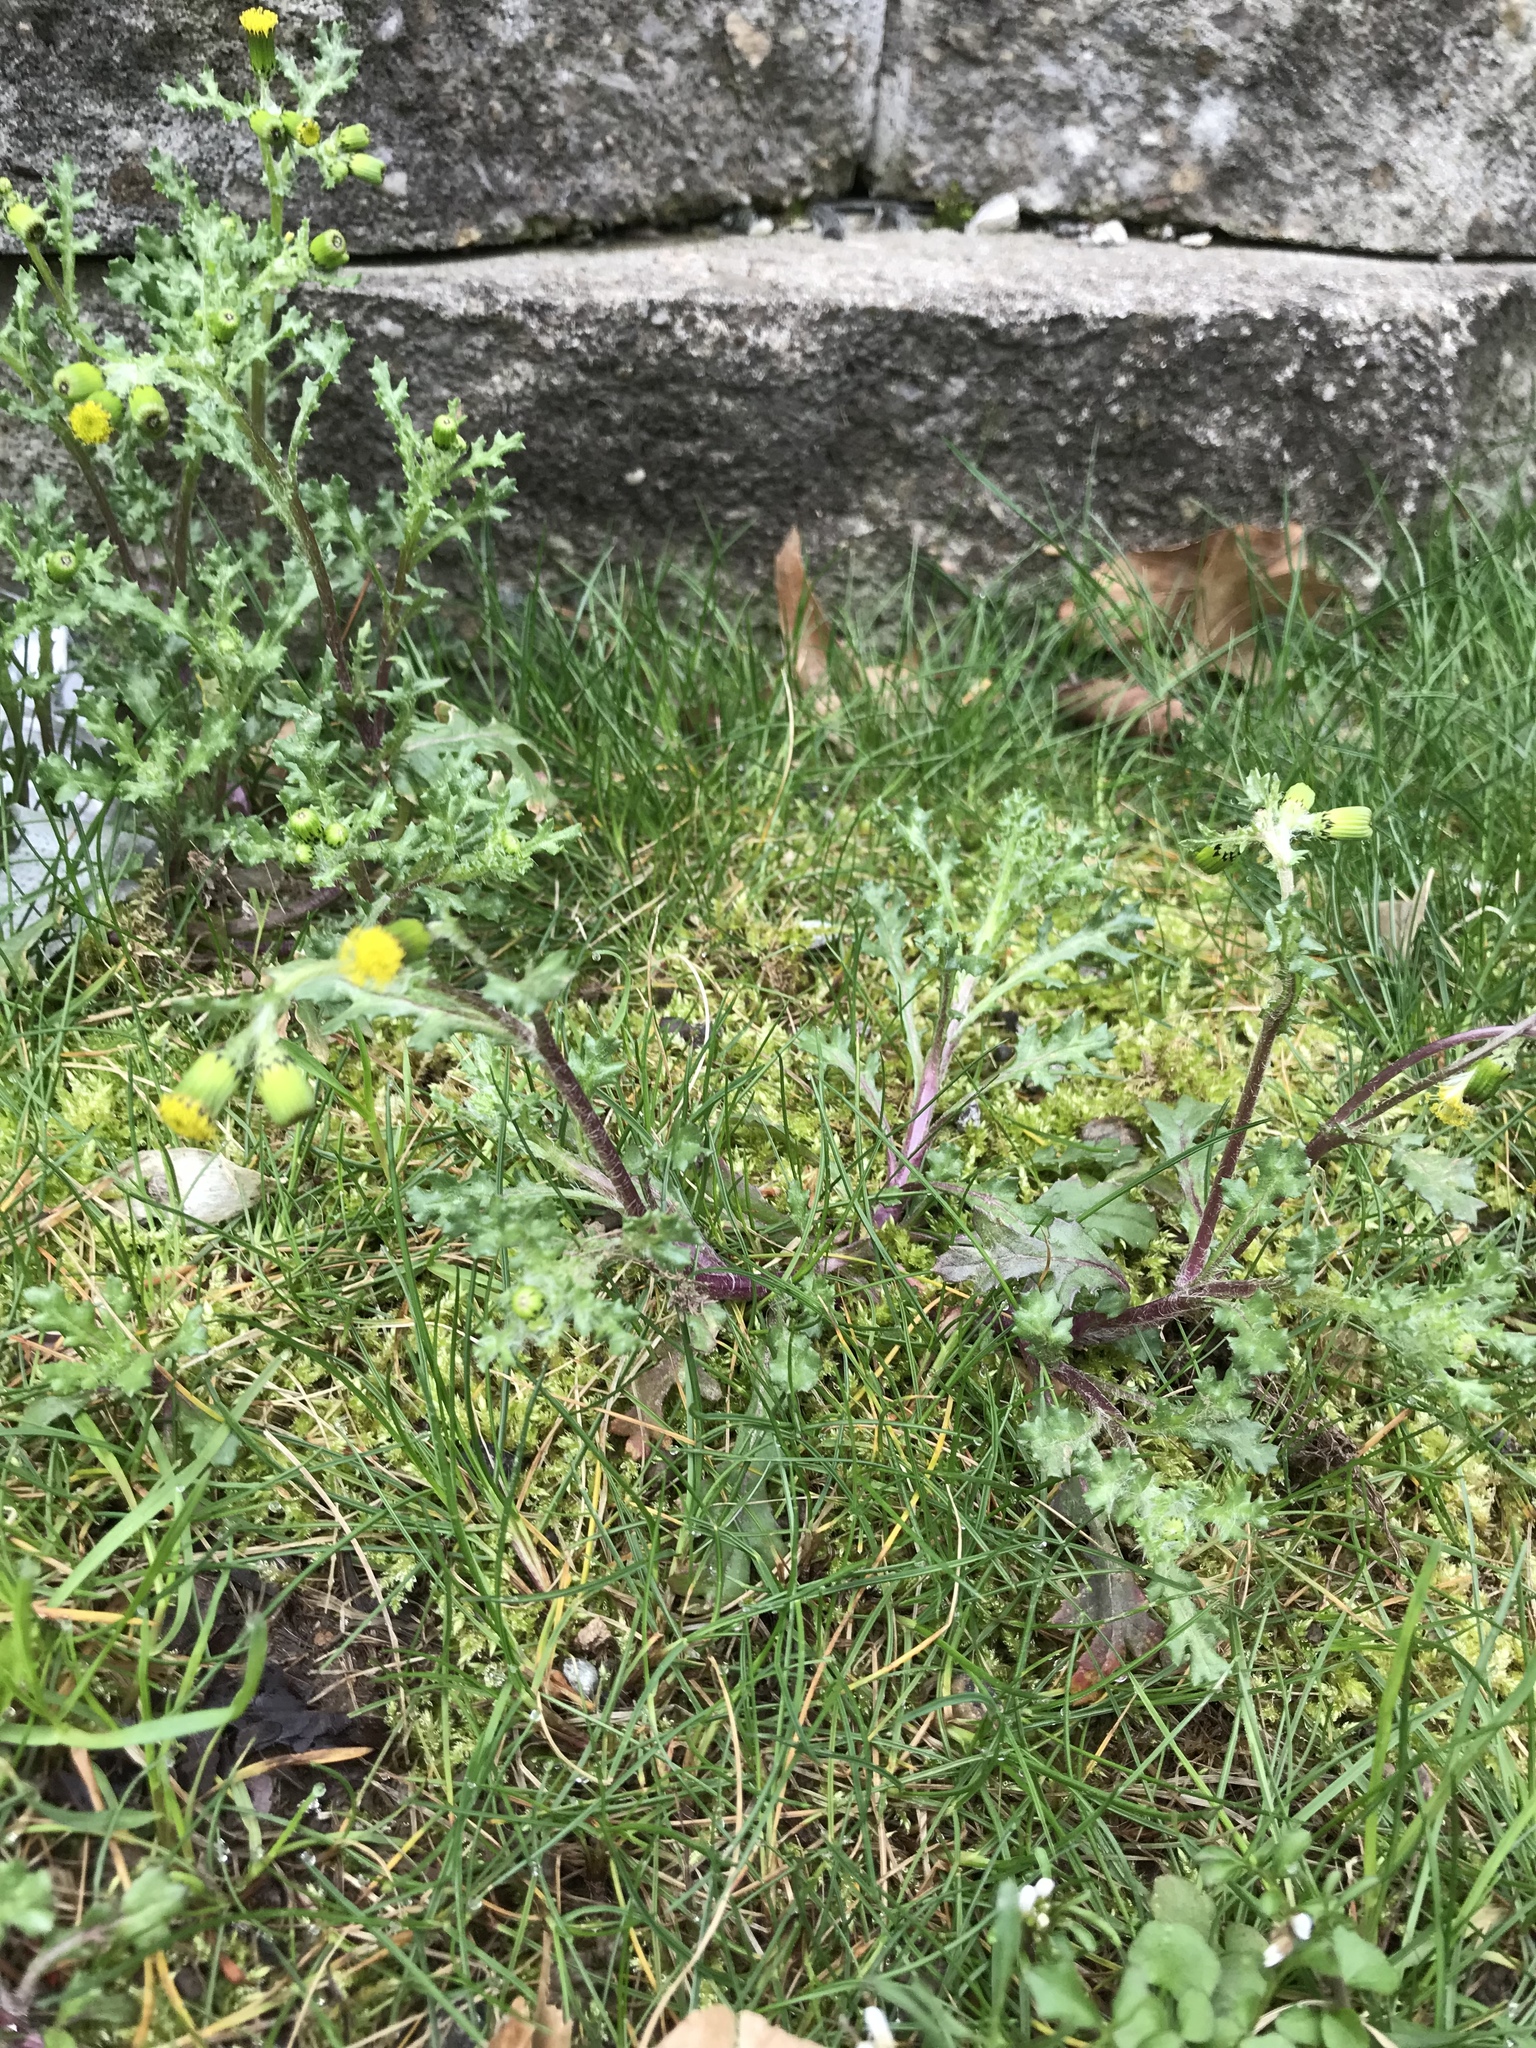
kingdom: Plantae
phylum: Tracheophyta
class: Magnoliopsida
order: Asterales
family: Asteraceae
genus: Senecio
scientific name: Senecio vulgaris
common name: Old-man-in-the-spring
